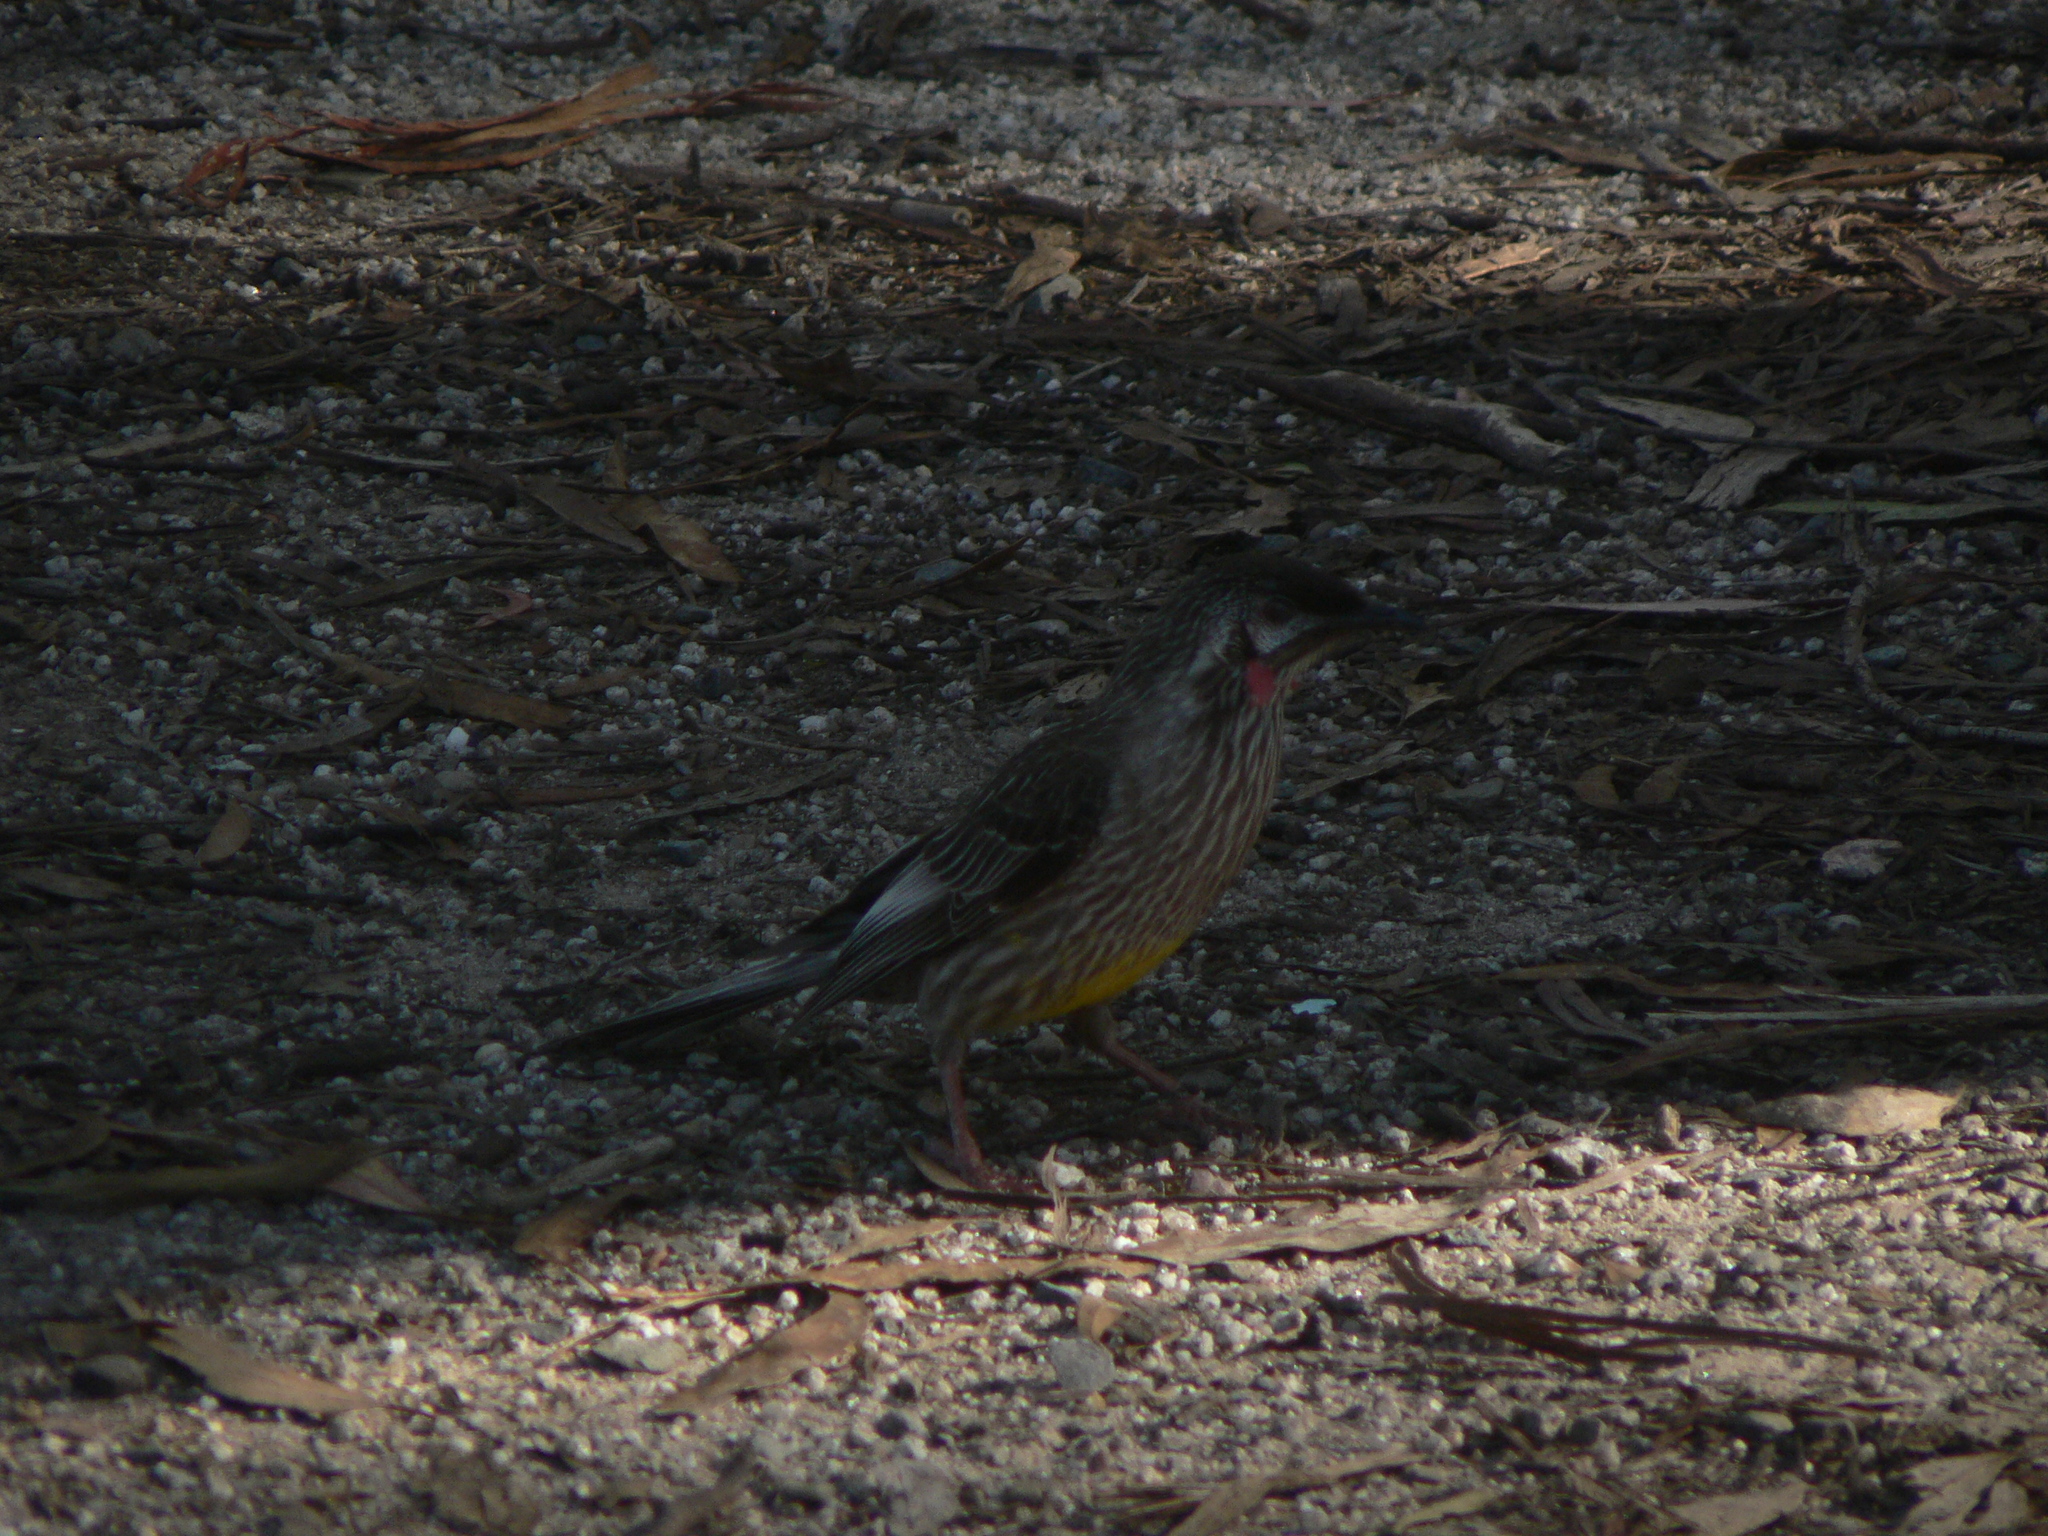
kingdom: Animalia
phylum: Chordata
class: Aves
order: Passeriformes
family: Meliphagidae
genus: Anthochaera
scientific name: Anthochaera carunculata
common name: Red wattlebird
